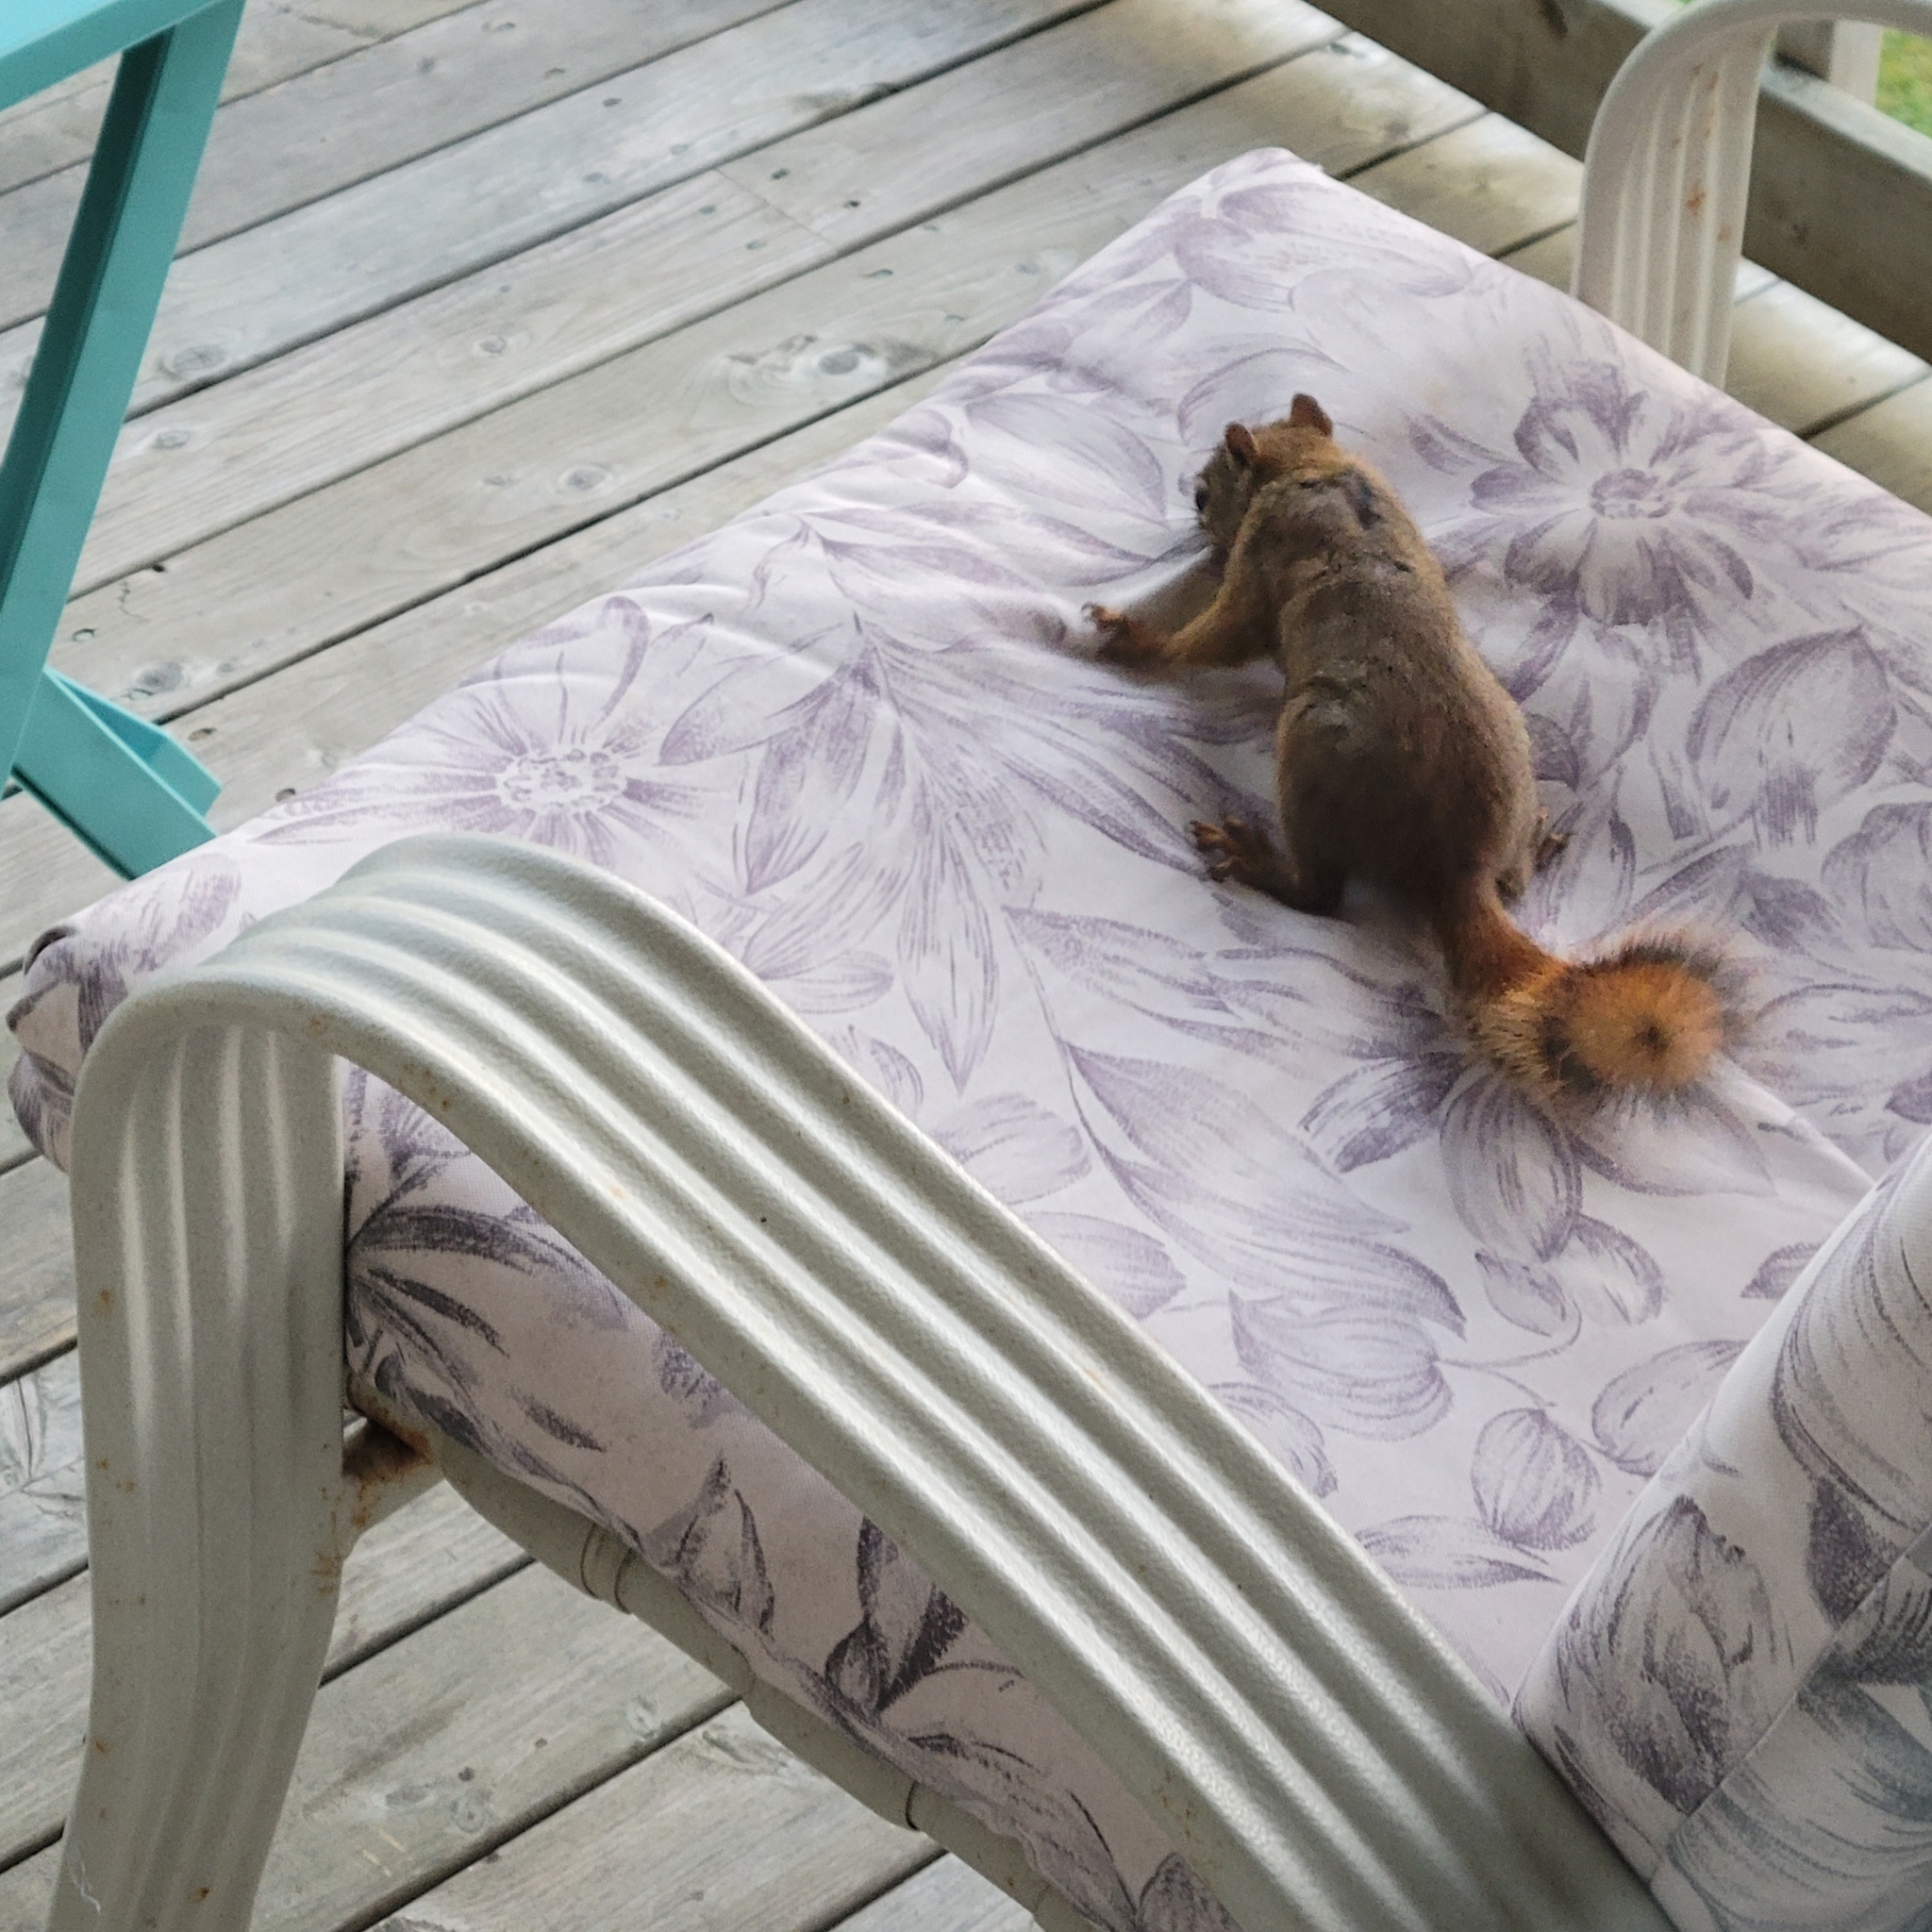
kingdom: Animalia
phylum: Chordata
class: Mammalia
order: Rodentia
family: Sciuridae
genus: Tamiasciurus
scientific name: Tamiasciurus hudsonicus
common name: Red squirrel
